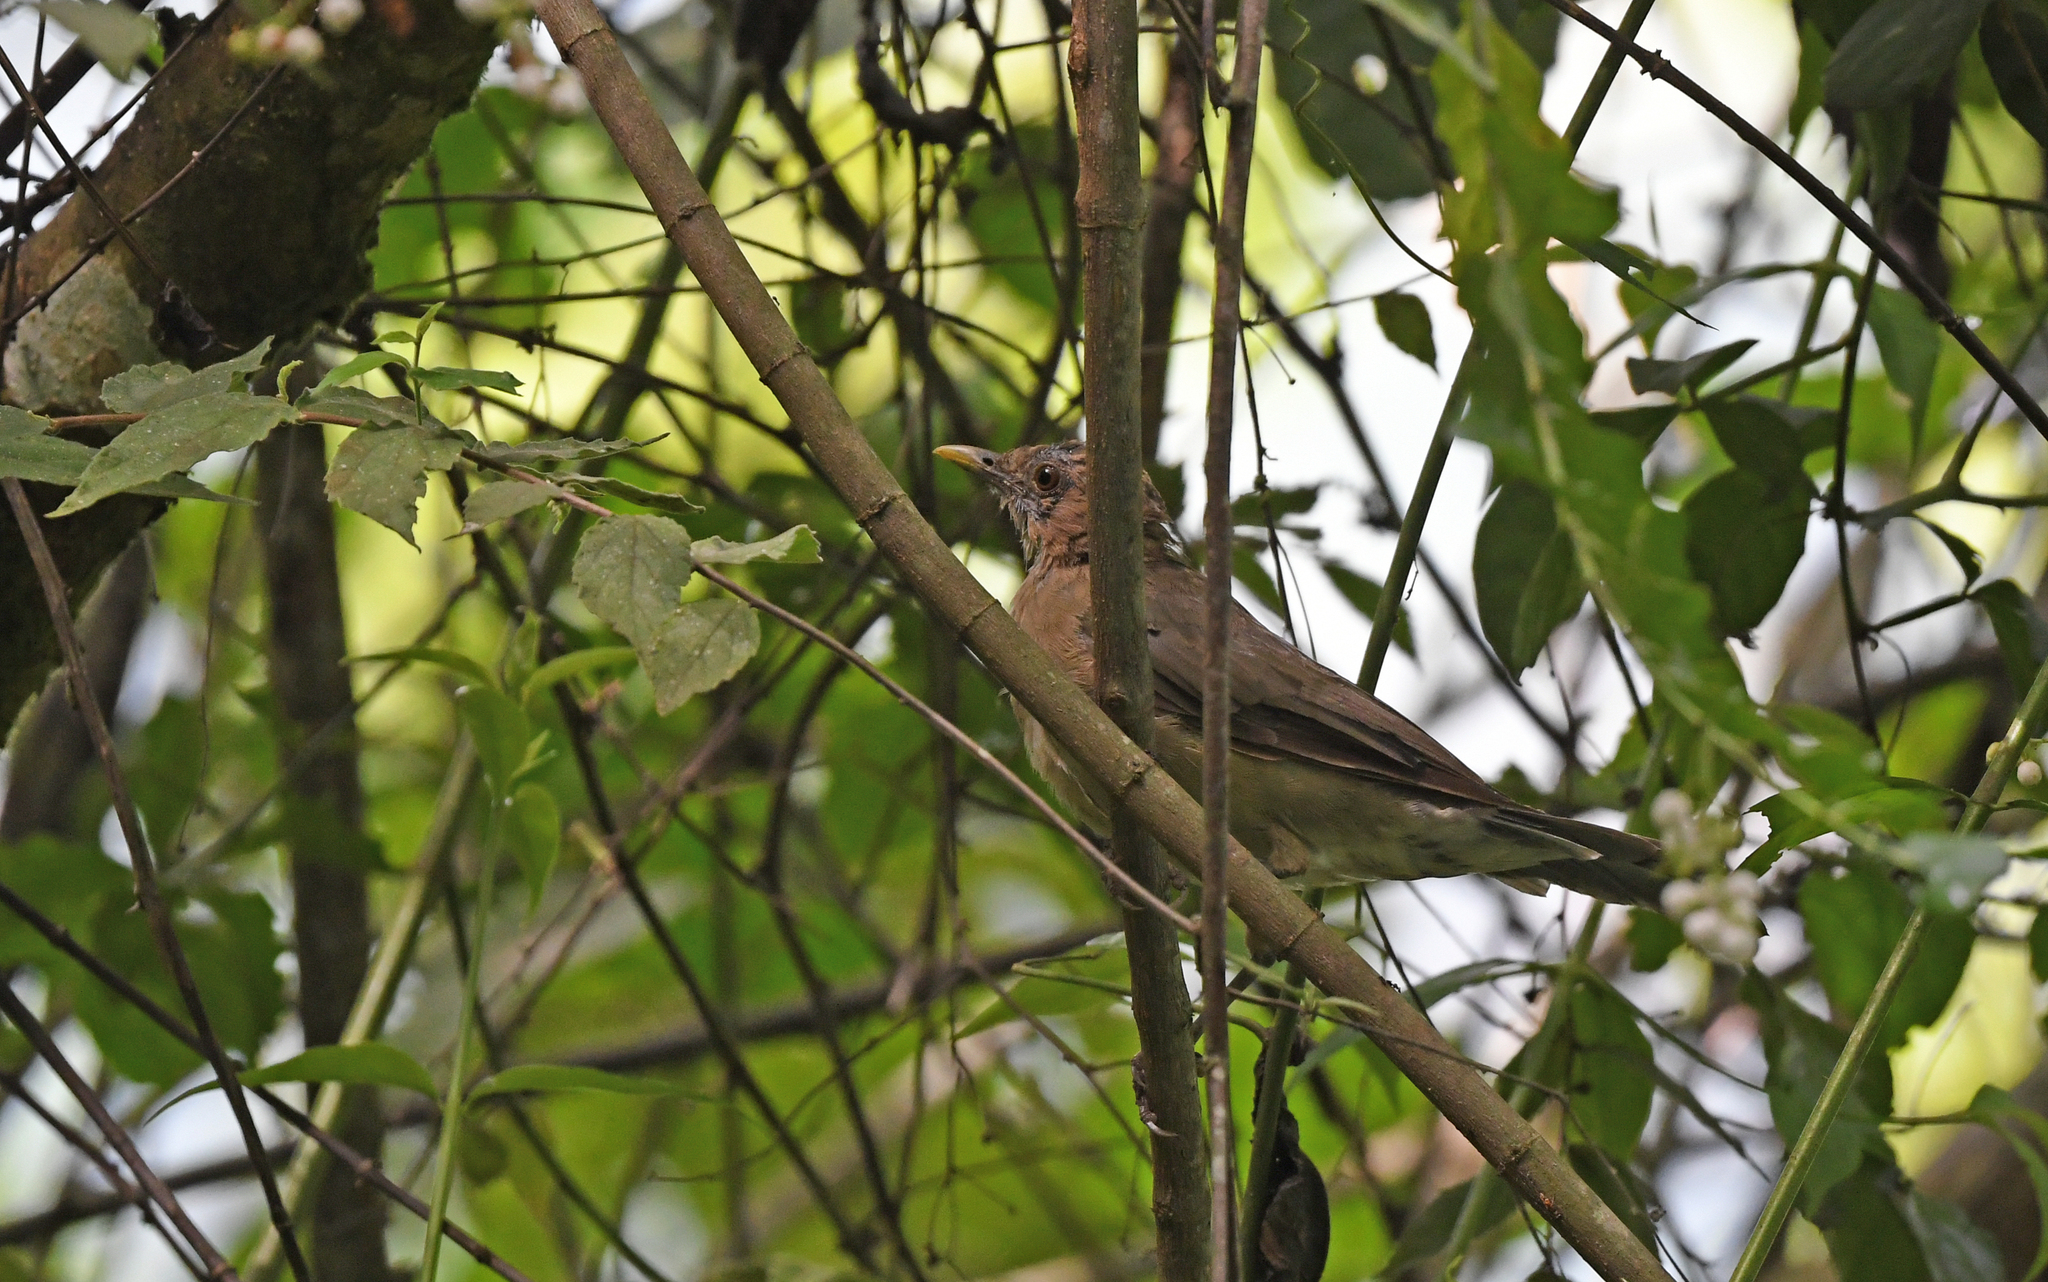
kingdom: Animalia
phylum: Chordata
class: Aves
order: Passeriformes
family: Turdidae
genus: Turdus
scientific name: Turdus grayi
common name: Clay-colored thrush
